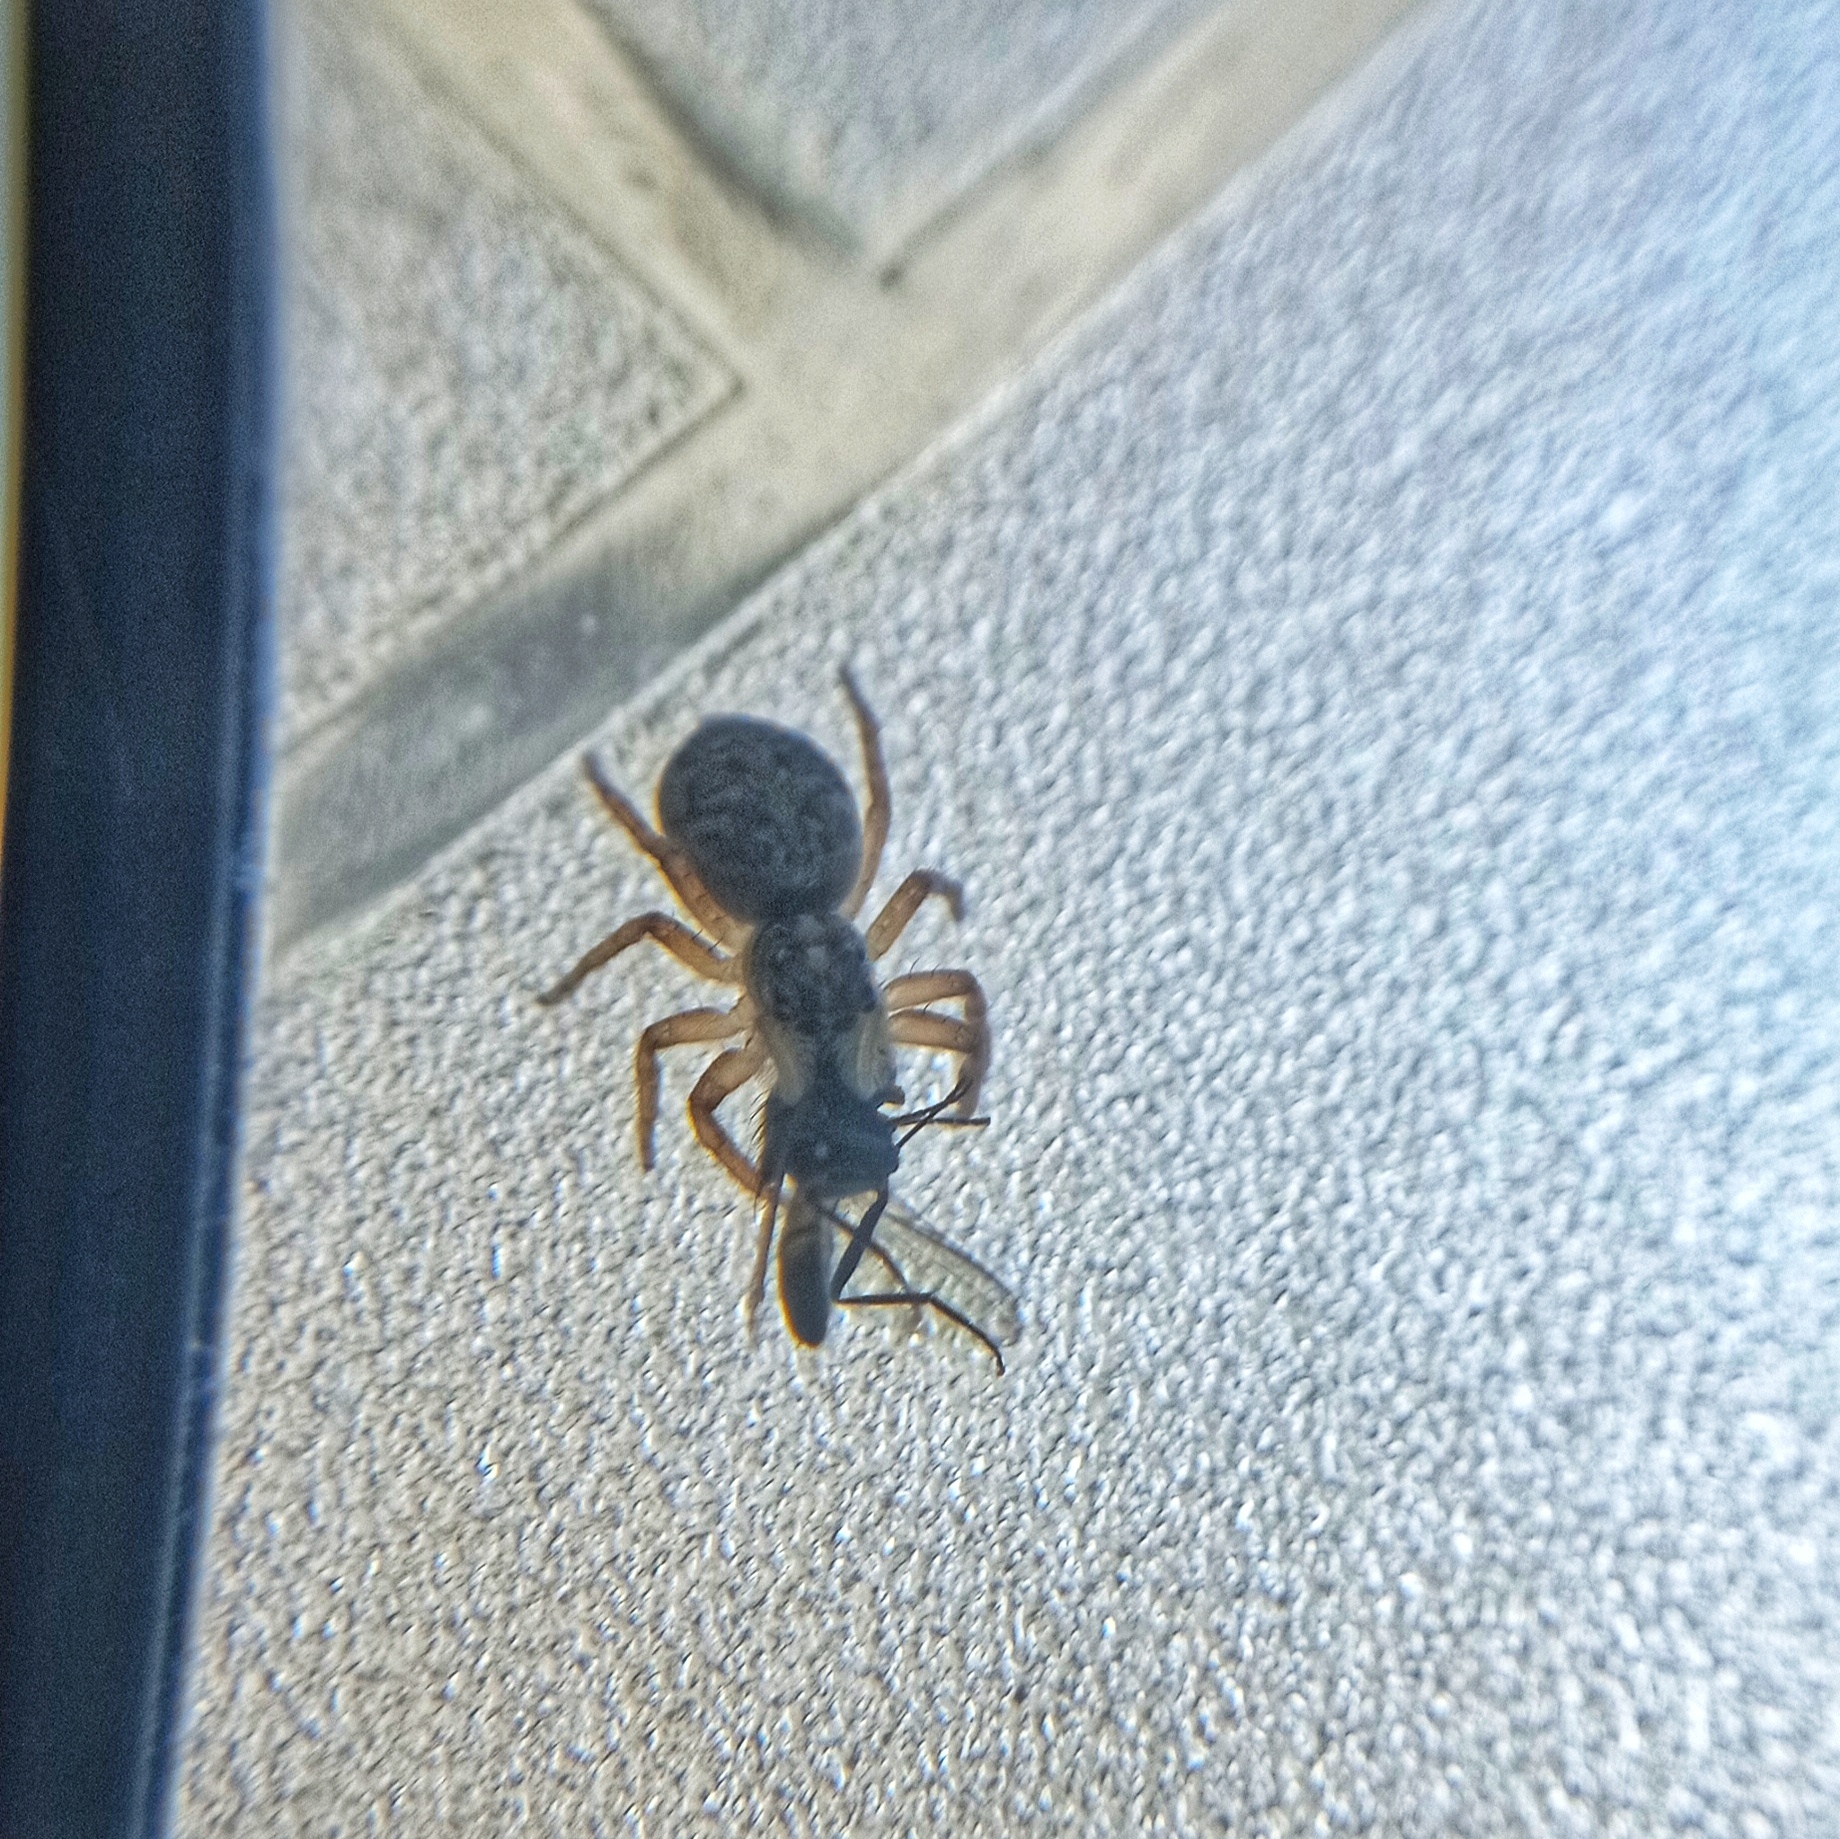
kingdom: Animalia
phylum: Arthropoda
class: Arachnida
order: Araneae
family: Salticidae
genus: Menemerus
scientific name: Menemerus semilimbatus
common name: Jumping spider
